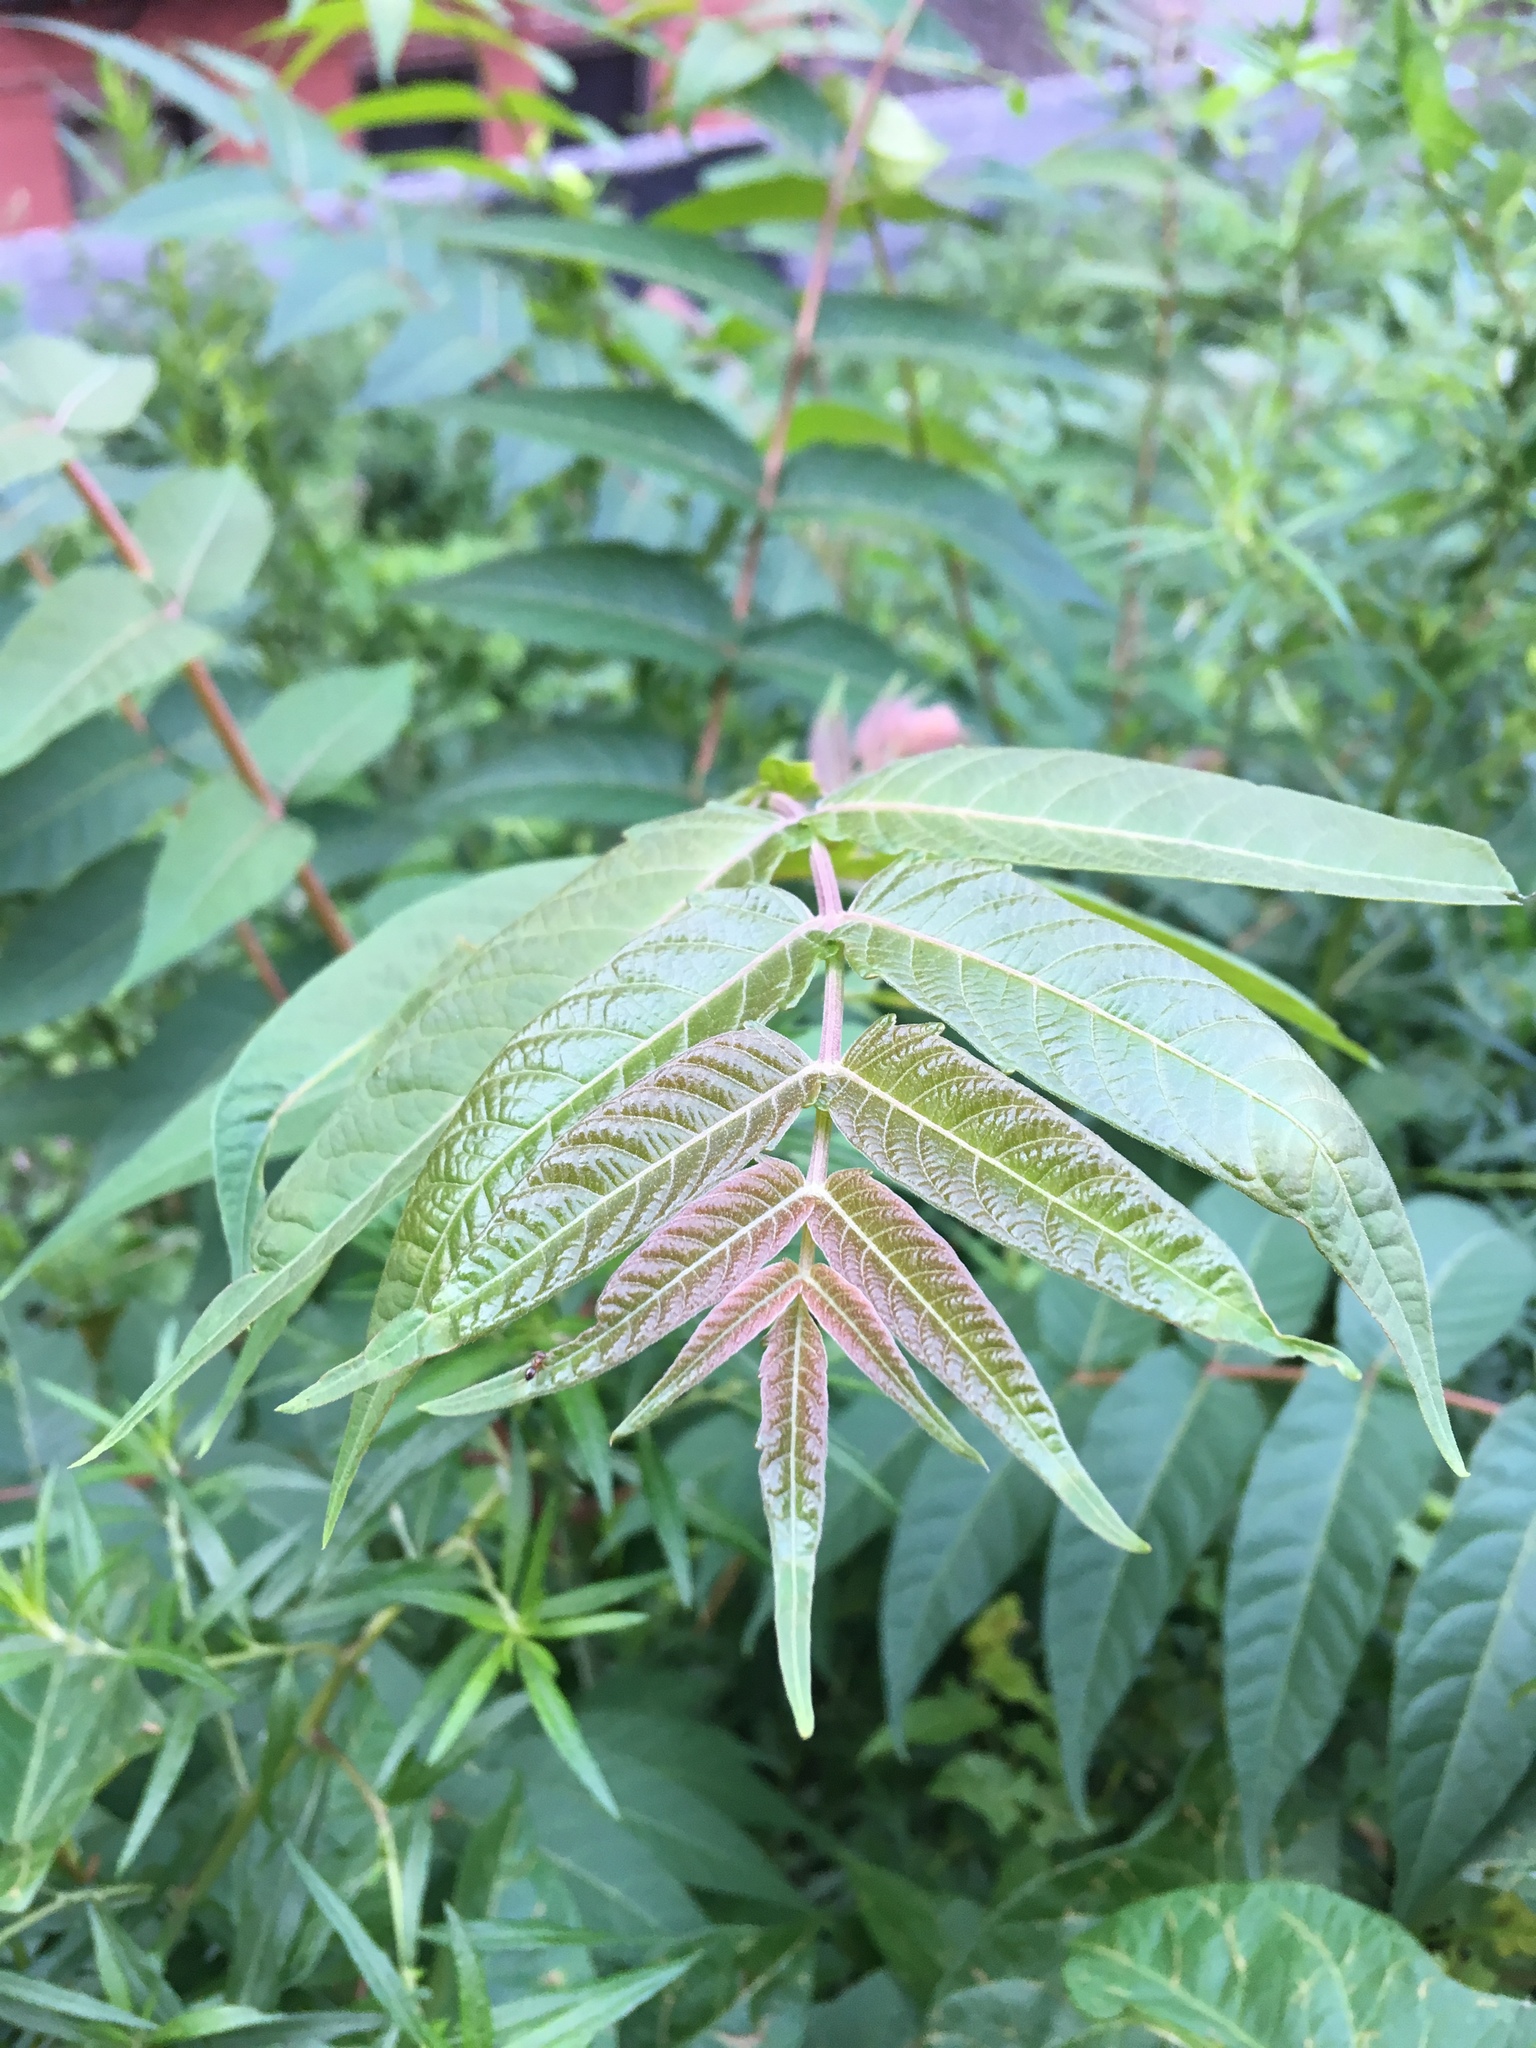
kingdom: Plantae
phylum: Tracheophyta
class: Magnoliopsida
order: Sapindales
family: Simaroubaceae
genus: Ailanthus
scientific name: Ailanthus altissima
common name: Tree-of-heaven
